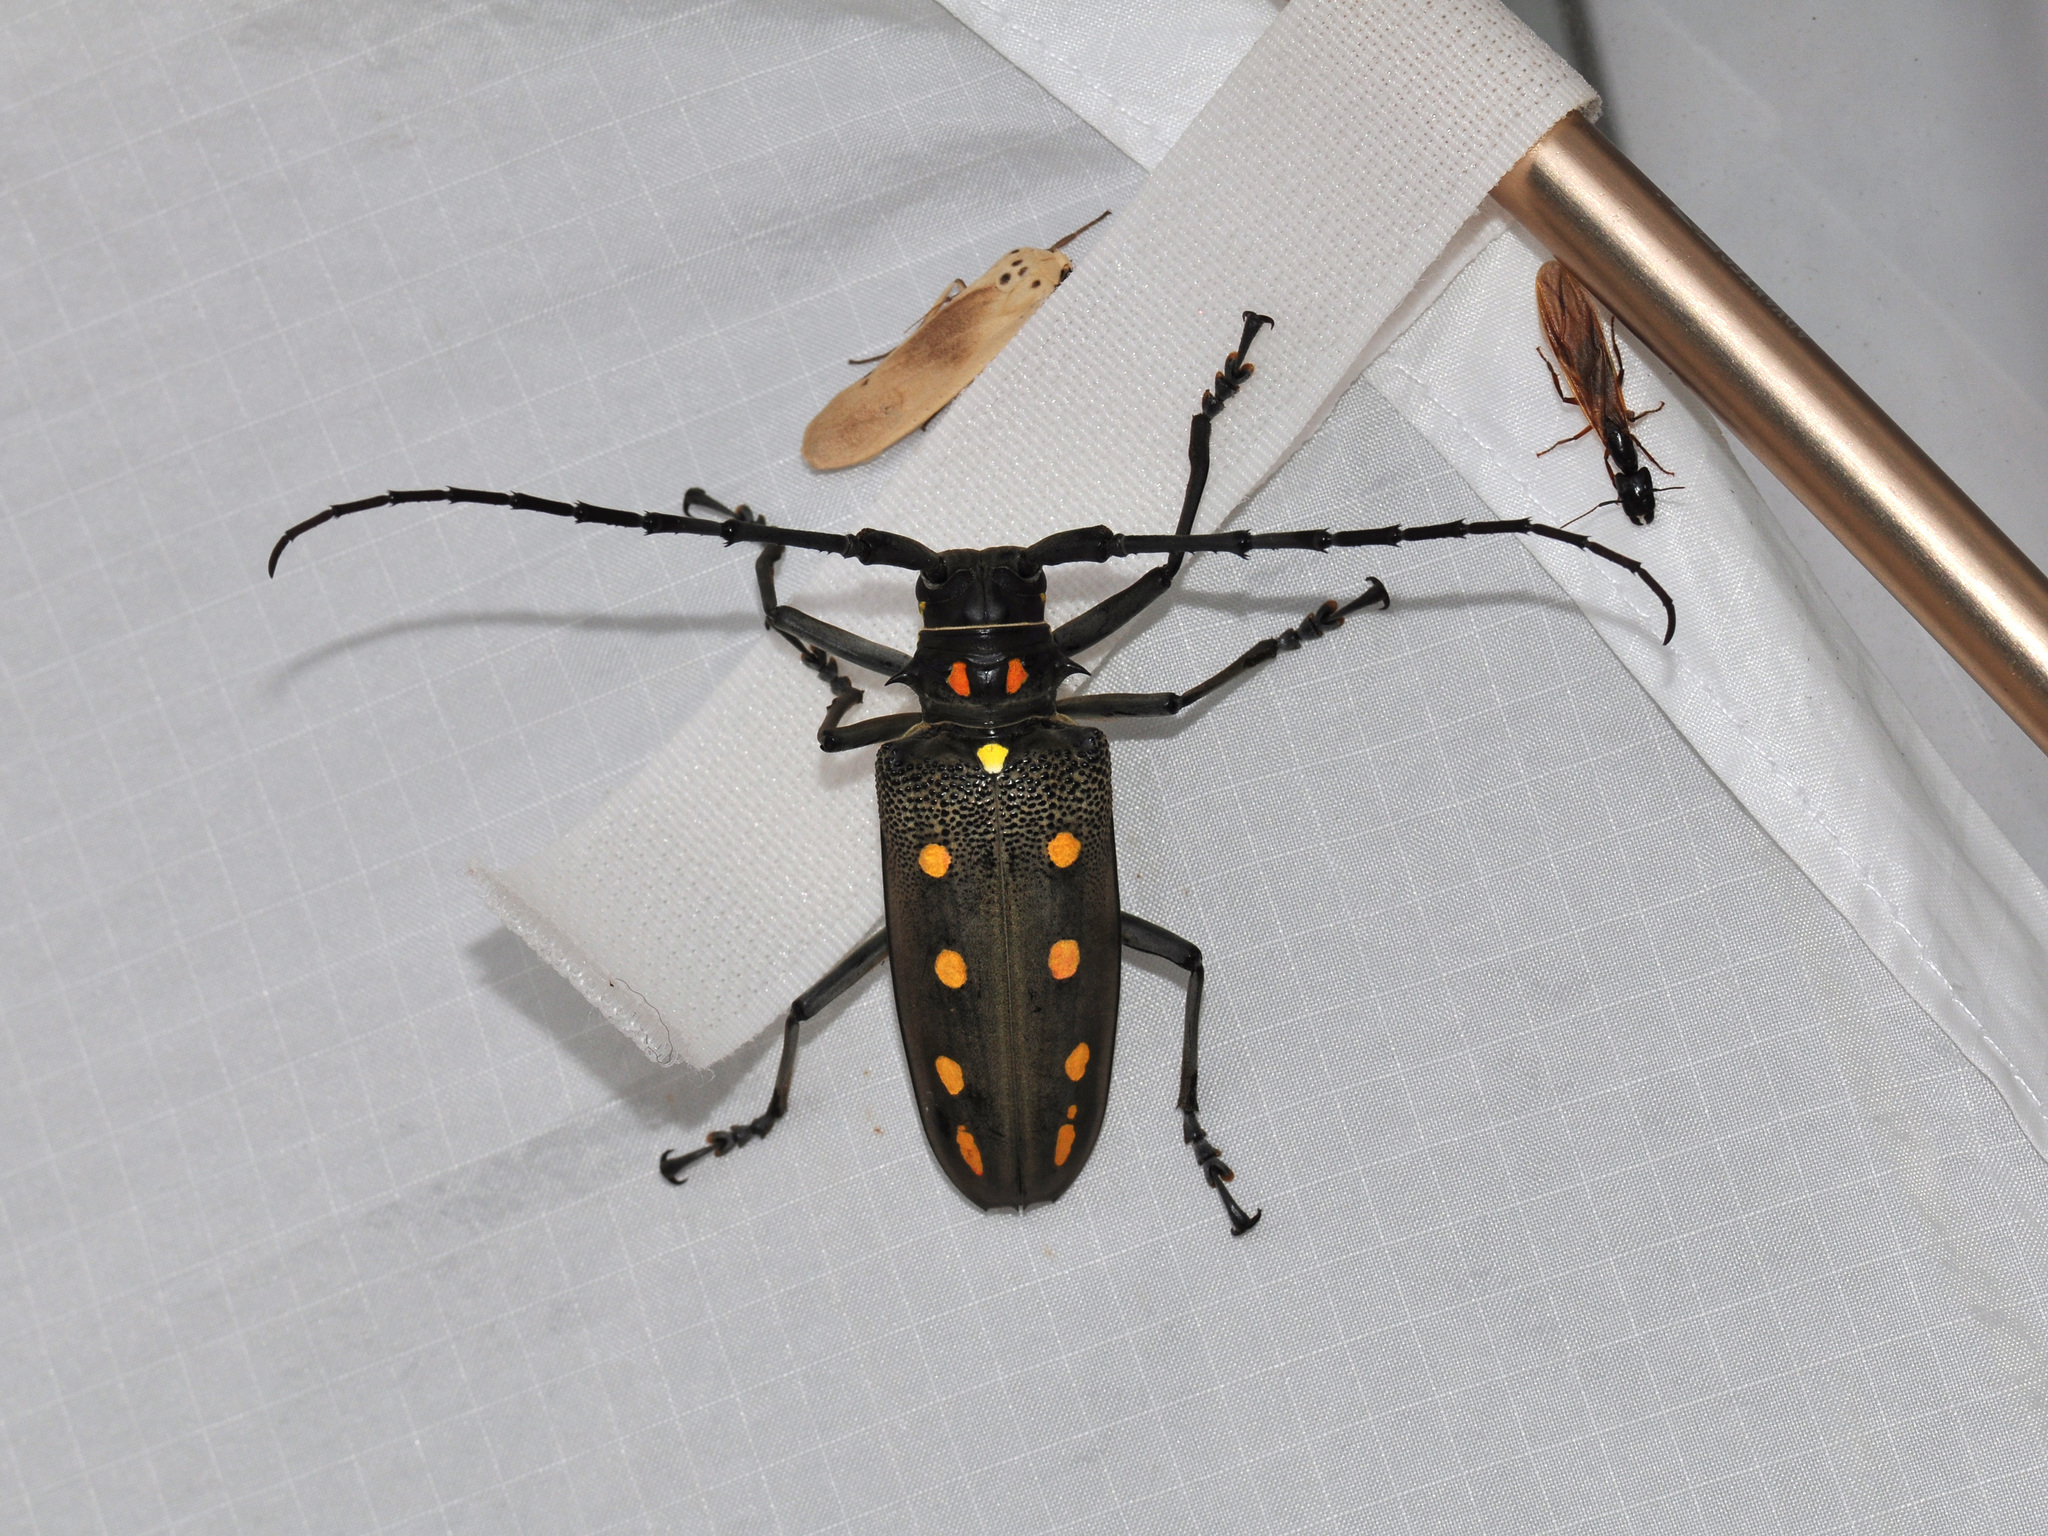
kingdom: Animalia
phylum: Arthropoda
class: Insecta
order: Coleoptera
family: Cerambycidae
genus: Batocera
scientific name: Batocera parryi
